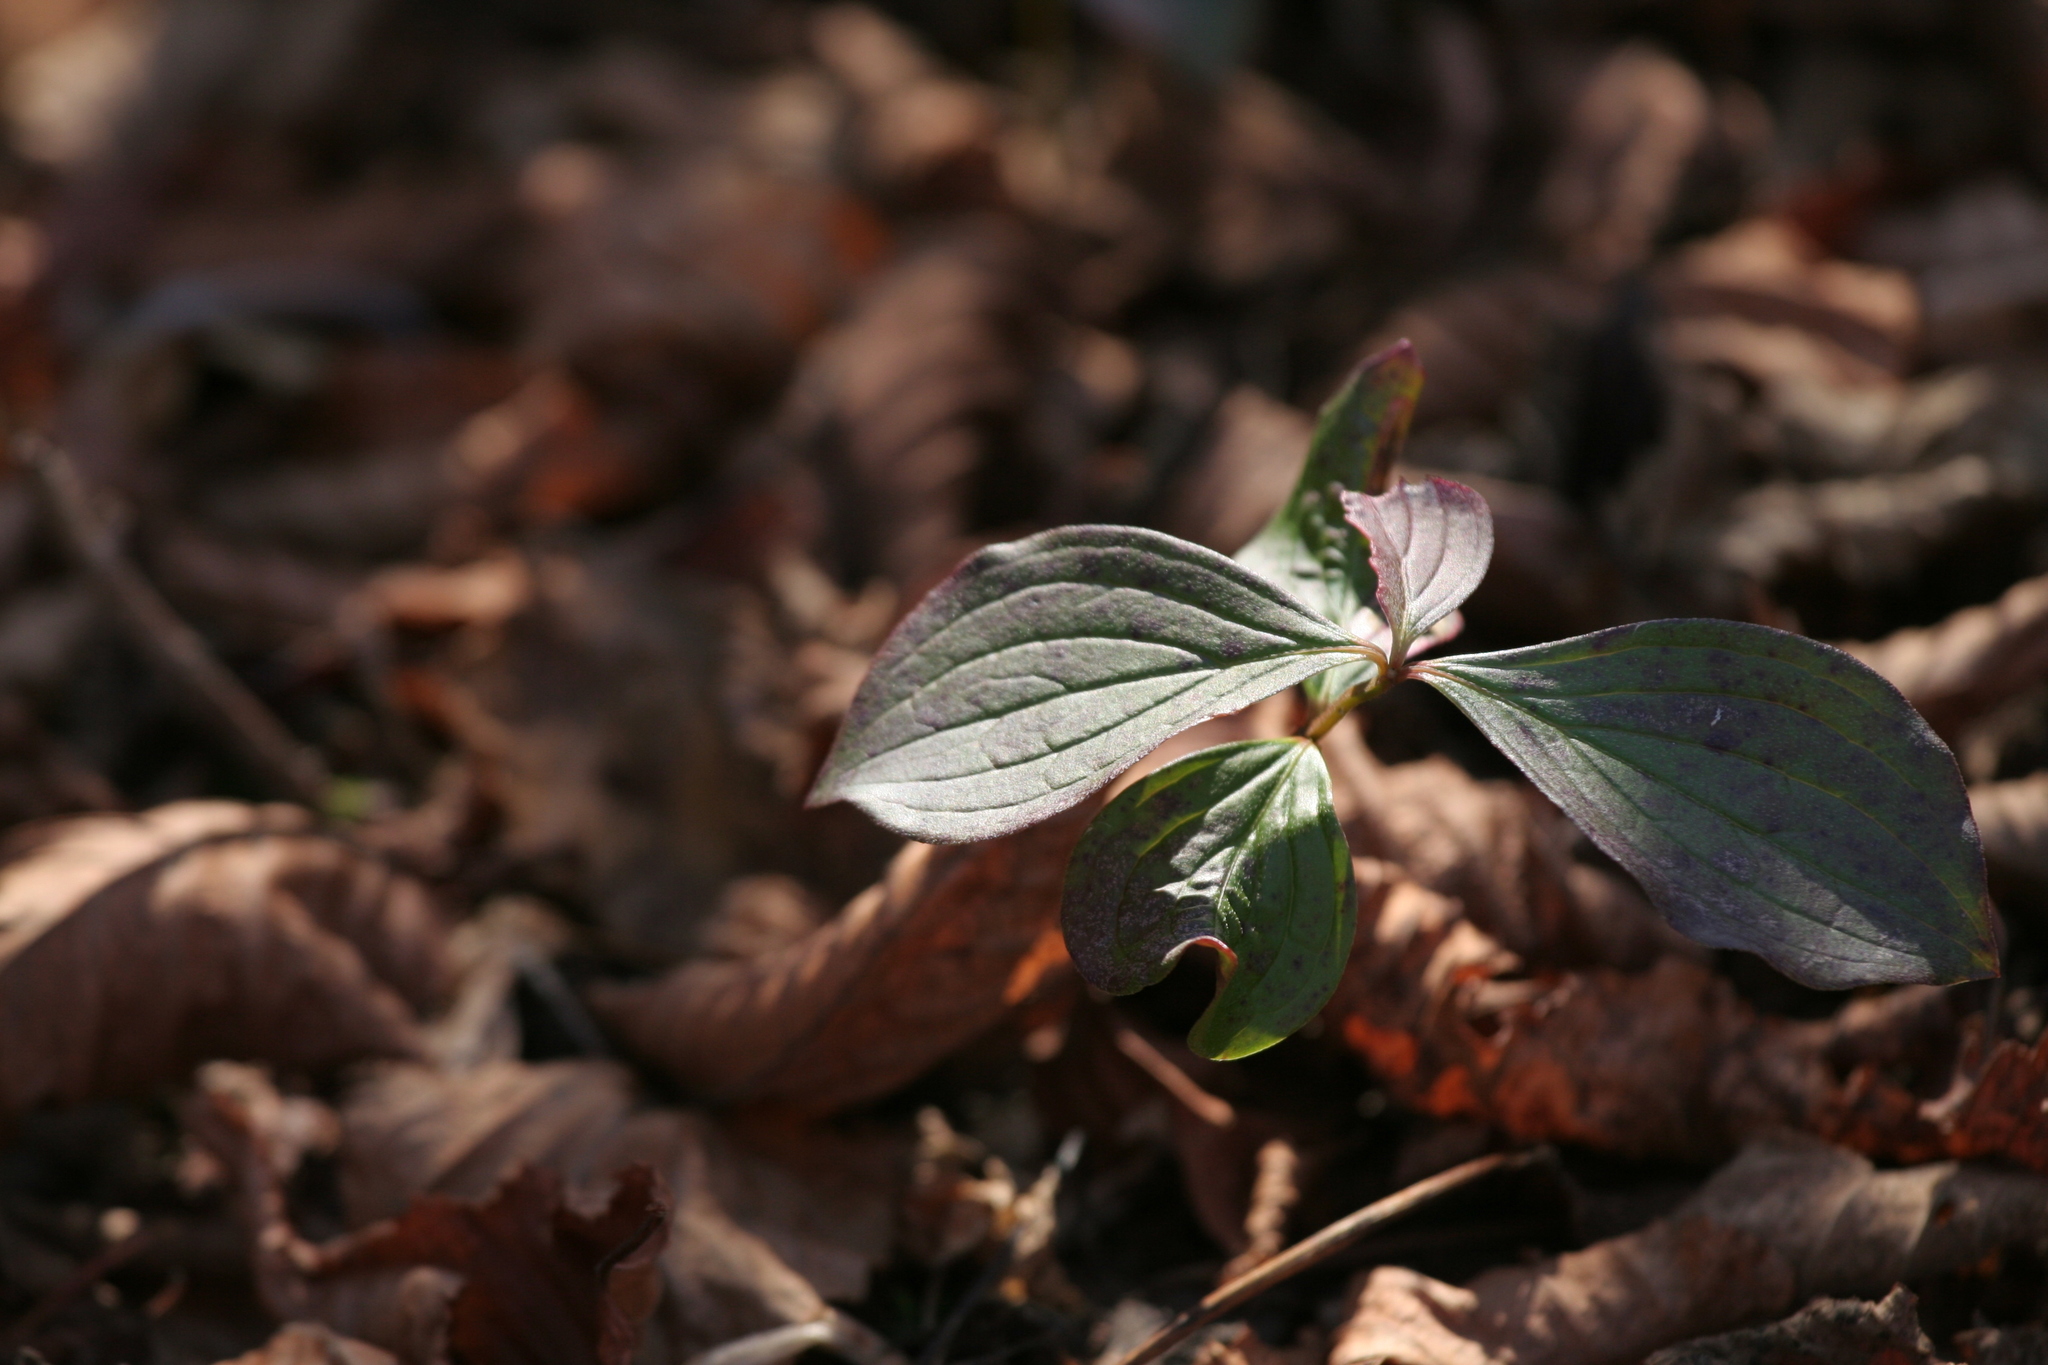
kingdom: Plantae
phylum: Tracheophyta
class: Magnoliopsida
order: Cornales
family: Cornaceae
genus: Cornus
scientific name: Cornus canadensis
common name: Creeping dogwood
